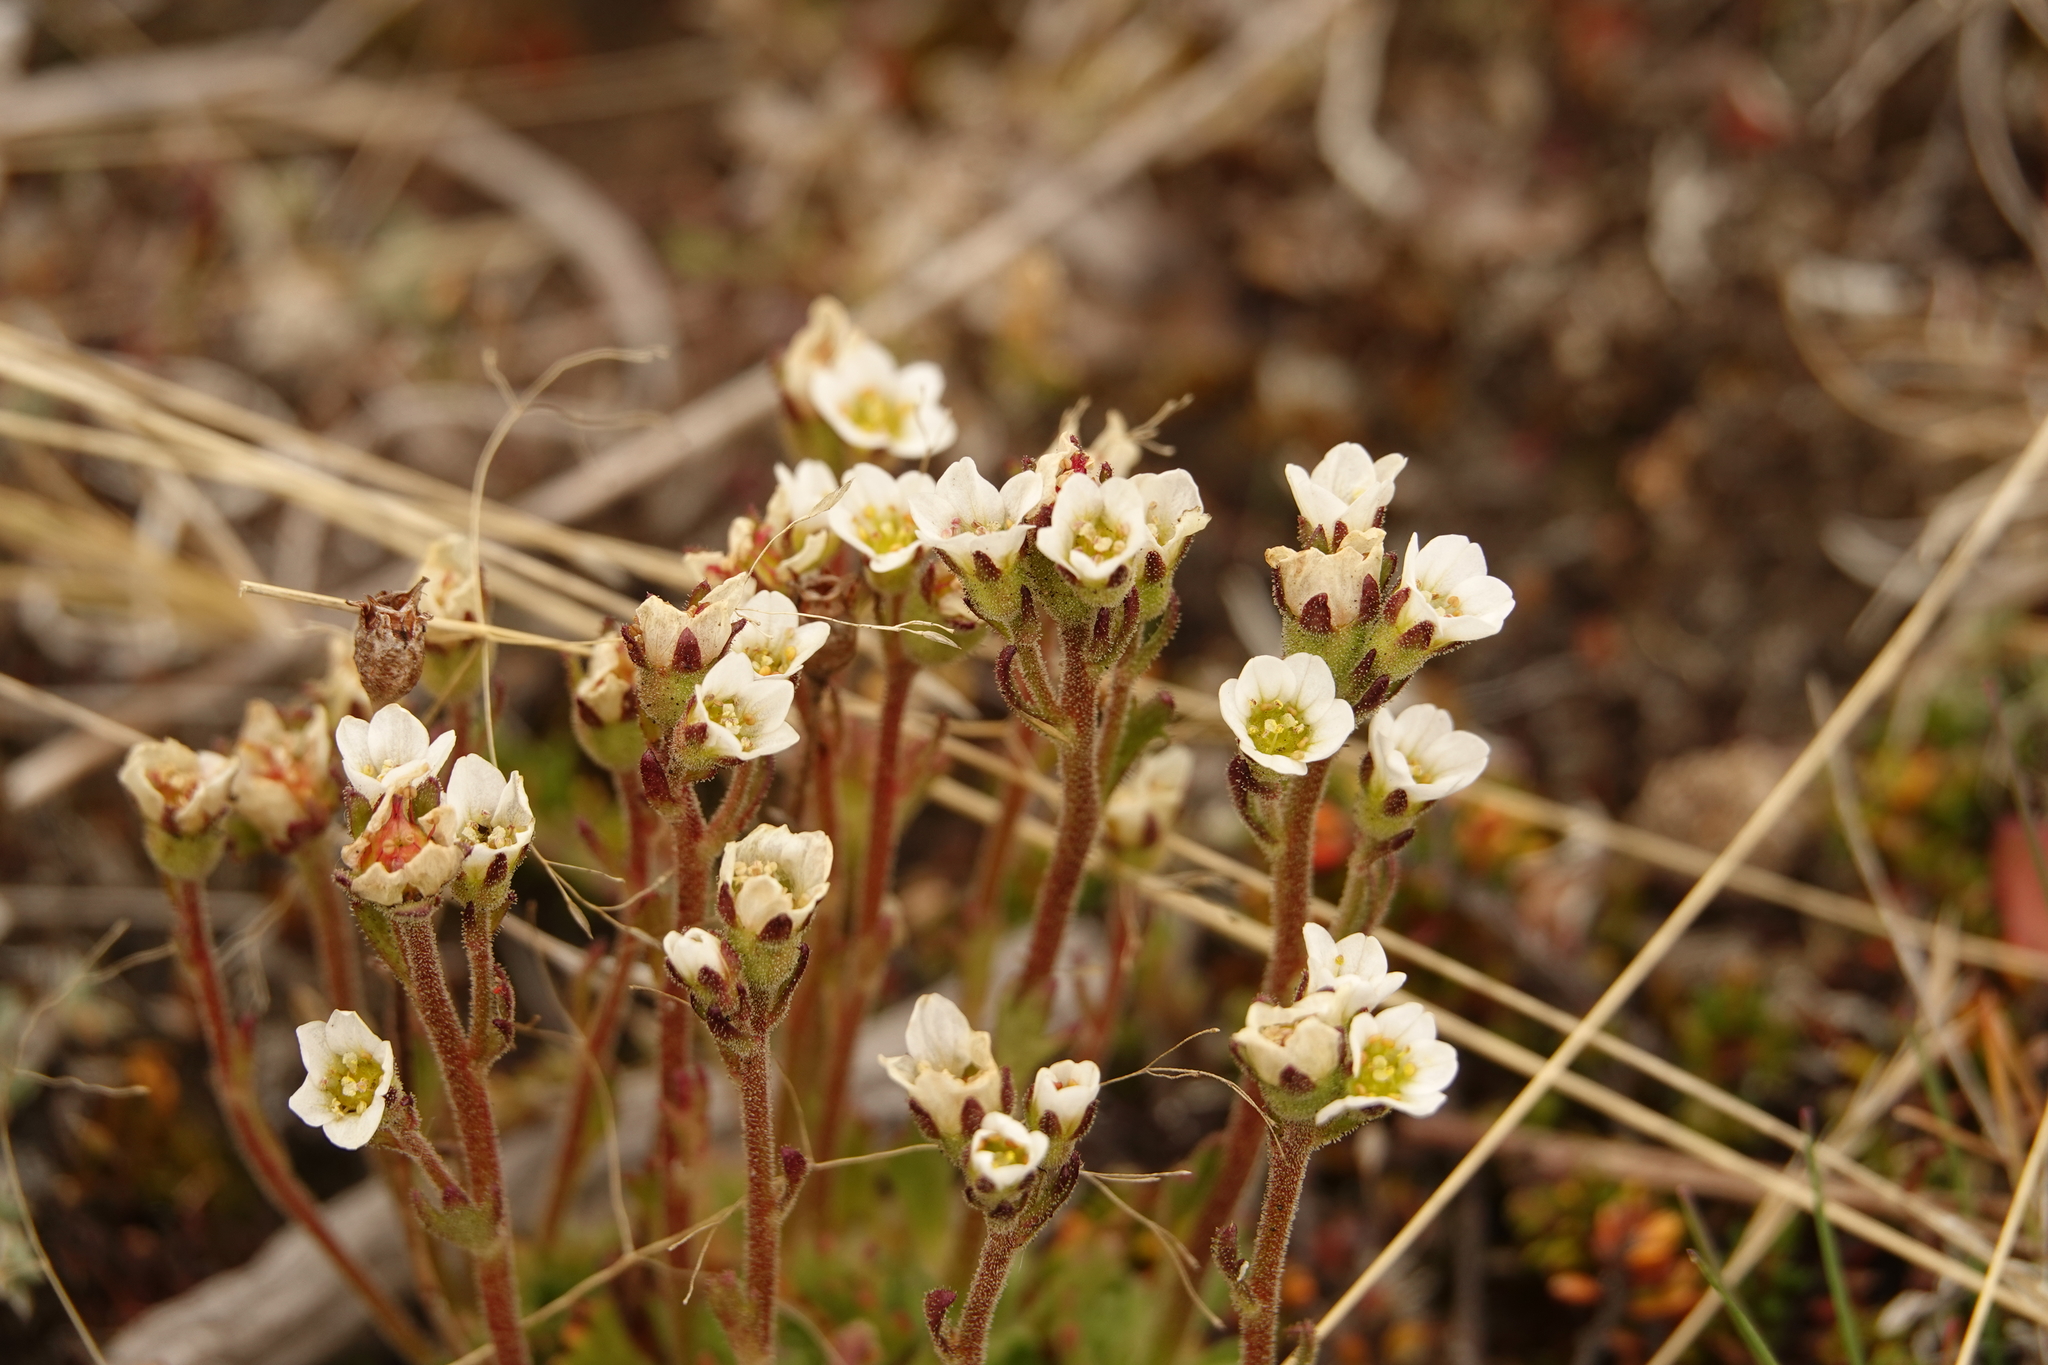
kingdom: Plantae
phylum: Tracheophyta
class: Magnoliopsida
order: Saxifragales
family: Saxifragaceae
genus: Saxifraga
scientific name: Saxifraga magellanica
